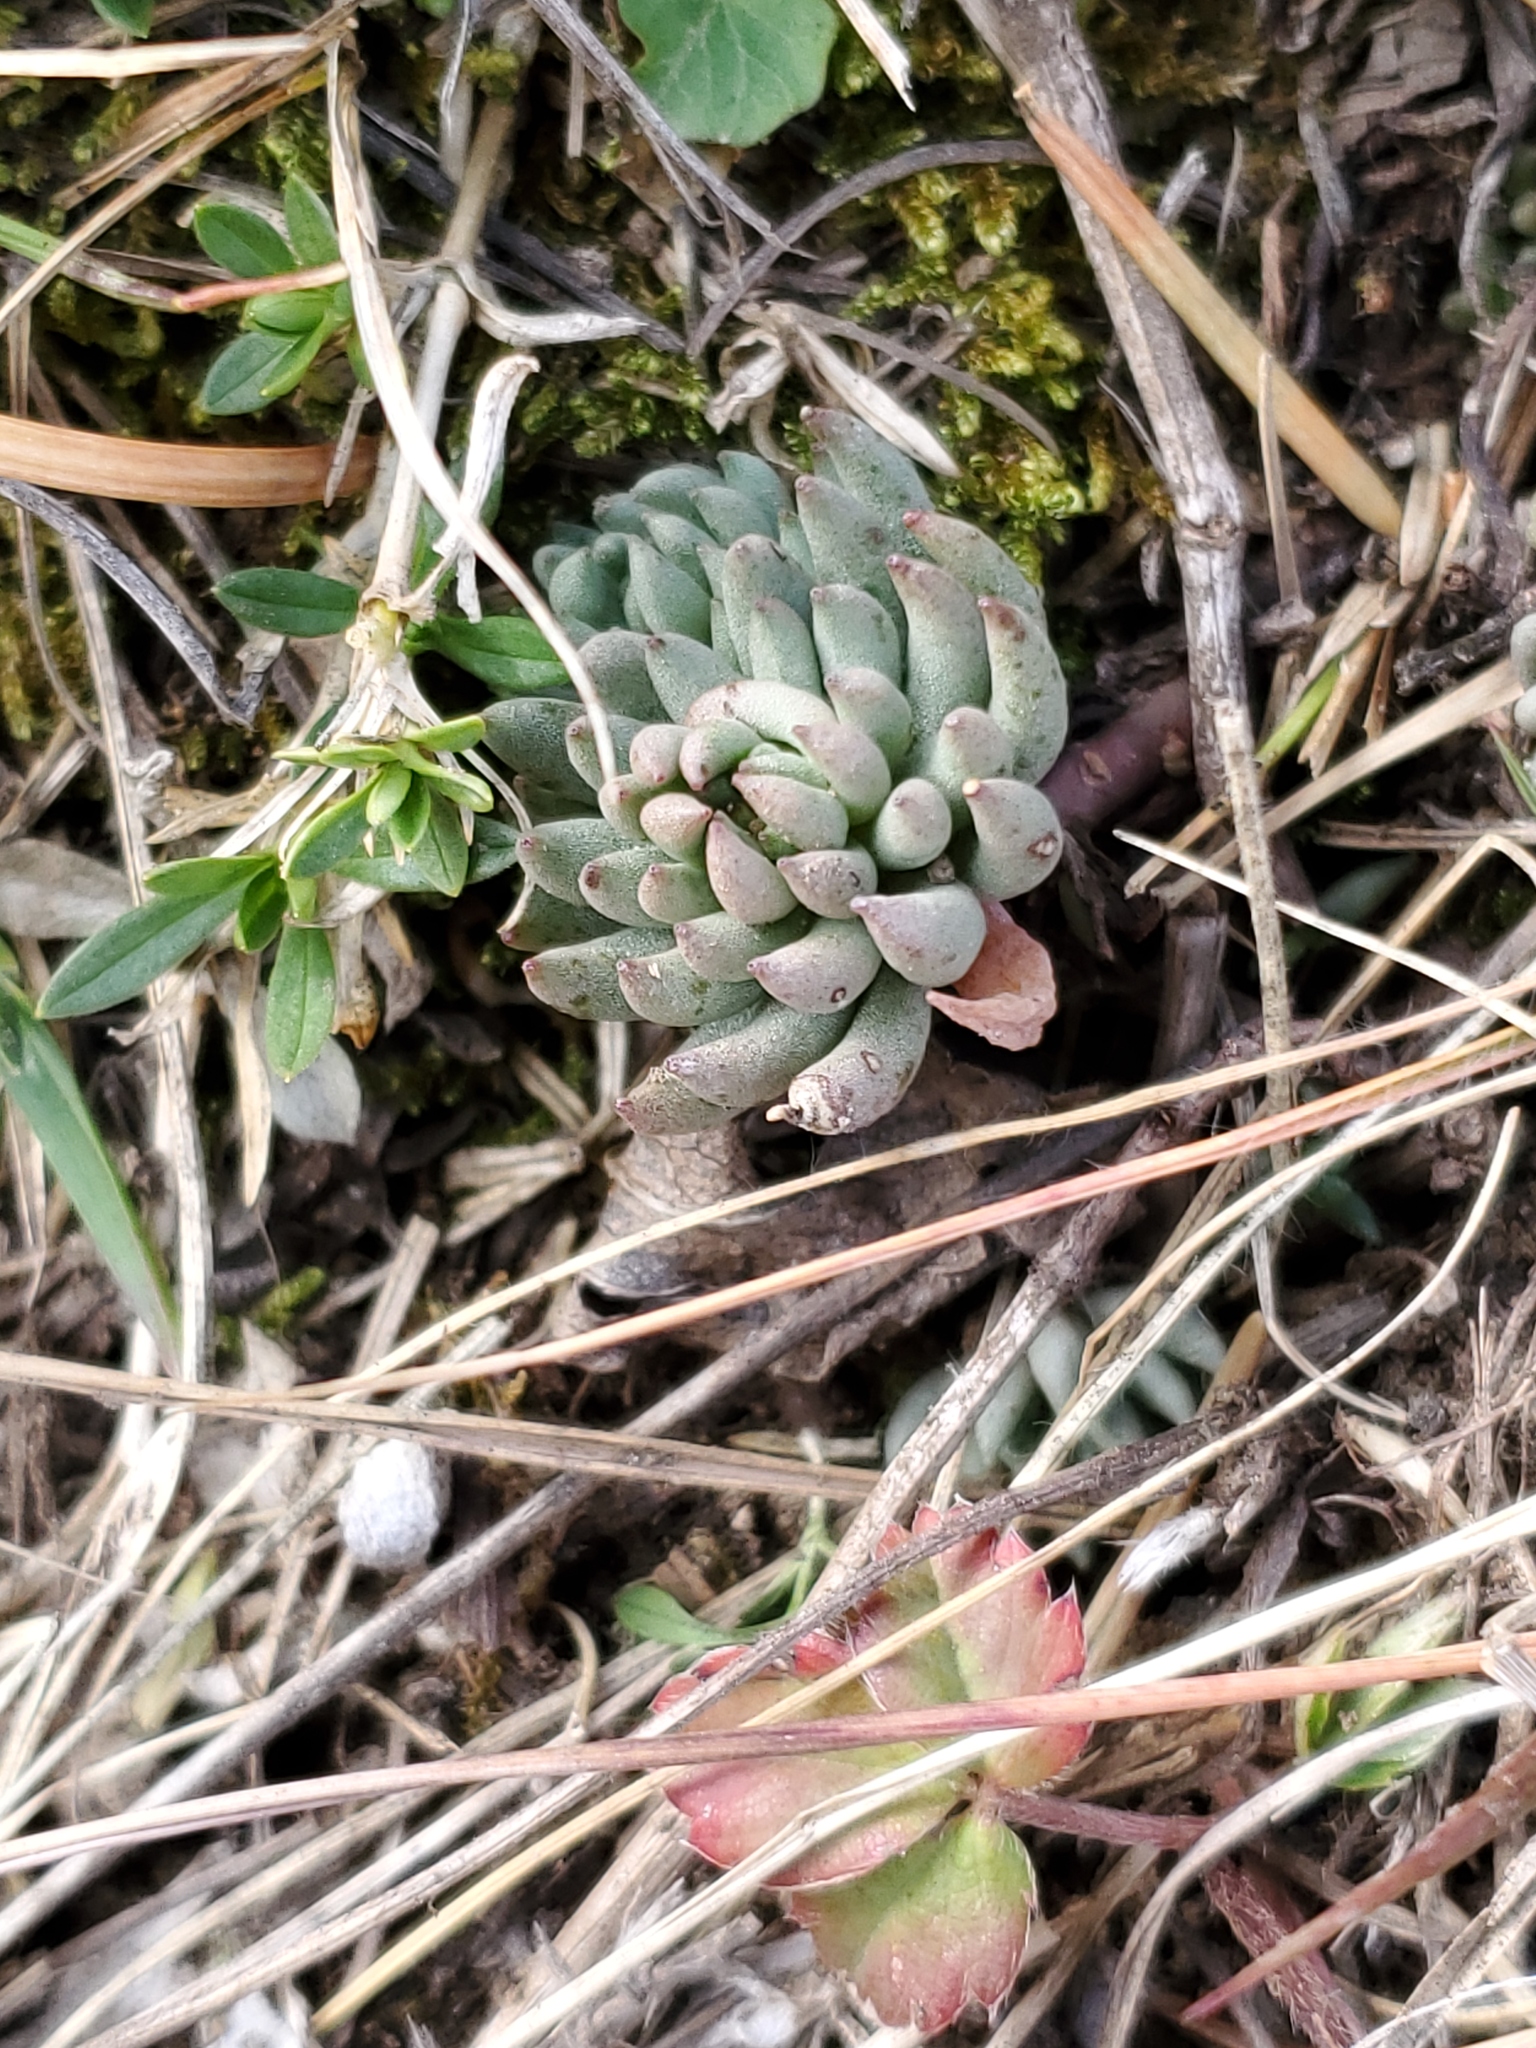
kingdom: Plantae
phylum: Tracheophyta
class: Magnoliopsida
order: Saxifragales
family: Crassulaceae
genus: Sedum
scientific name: Sedum lanceolatum
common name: Common stonecrop
